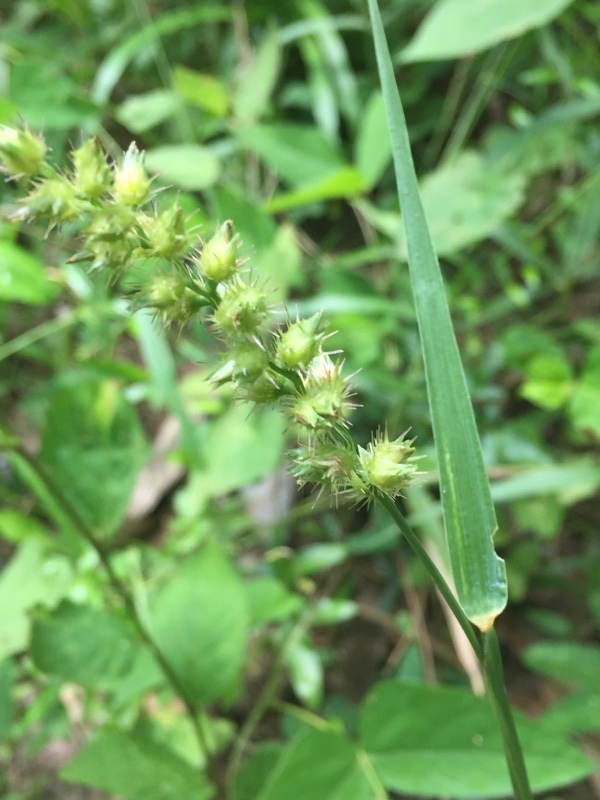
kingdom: Plantae
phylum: Tracheophyta
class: Liliopsida
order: Poales
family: Poaceae
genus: Cenchrus
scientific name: Cenchrus spinifex
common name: Coast sandbur
